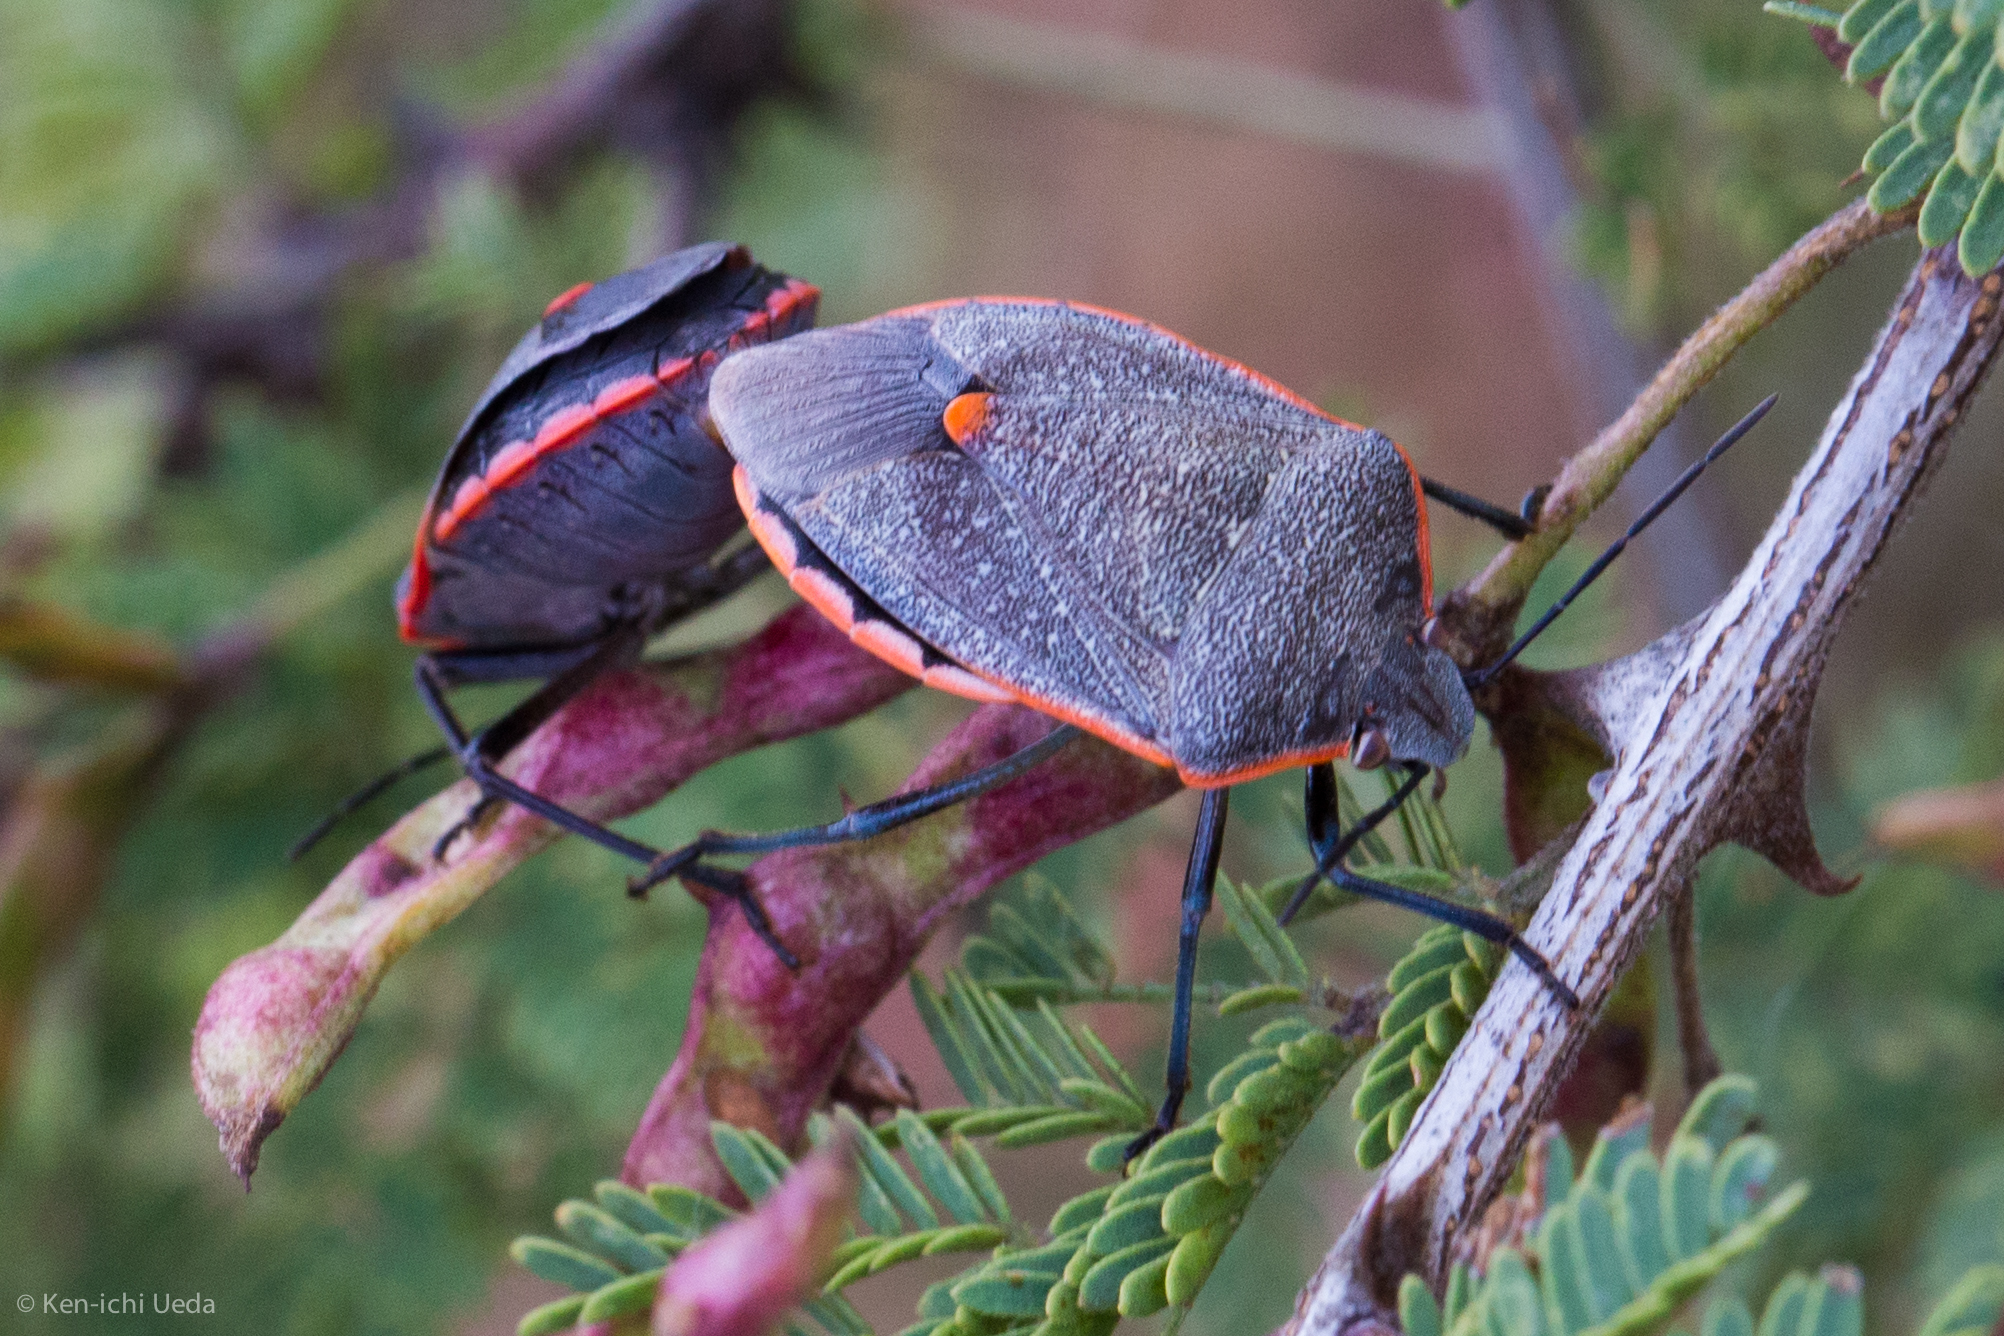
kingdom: Animalia
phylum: Arthropoda
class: Insecta
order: Hemiptera
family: Pentatomidae
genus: Chlorochroa
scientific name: Chlorochroa ligata
